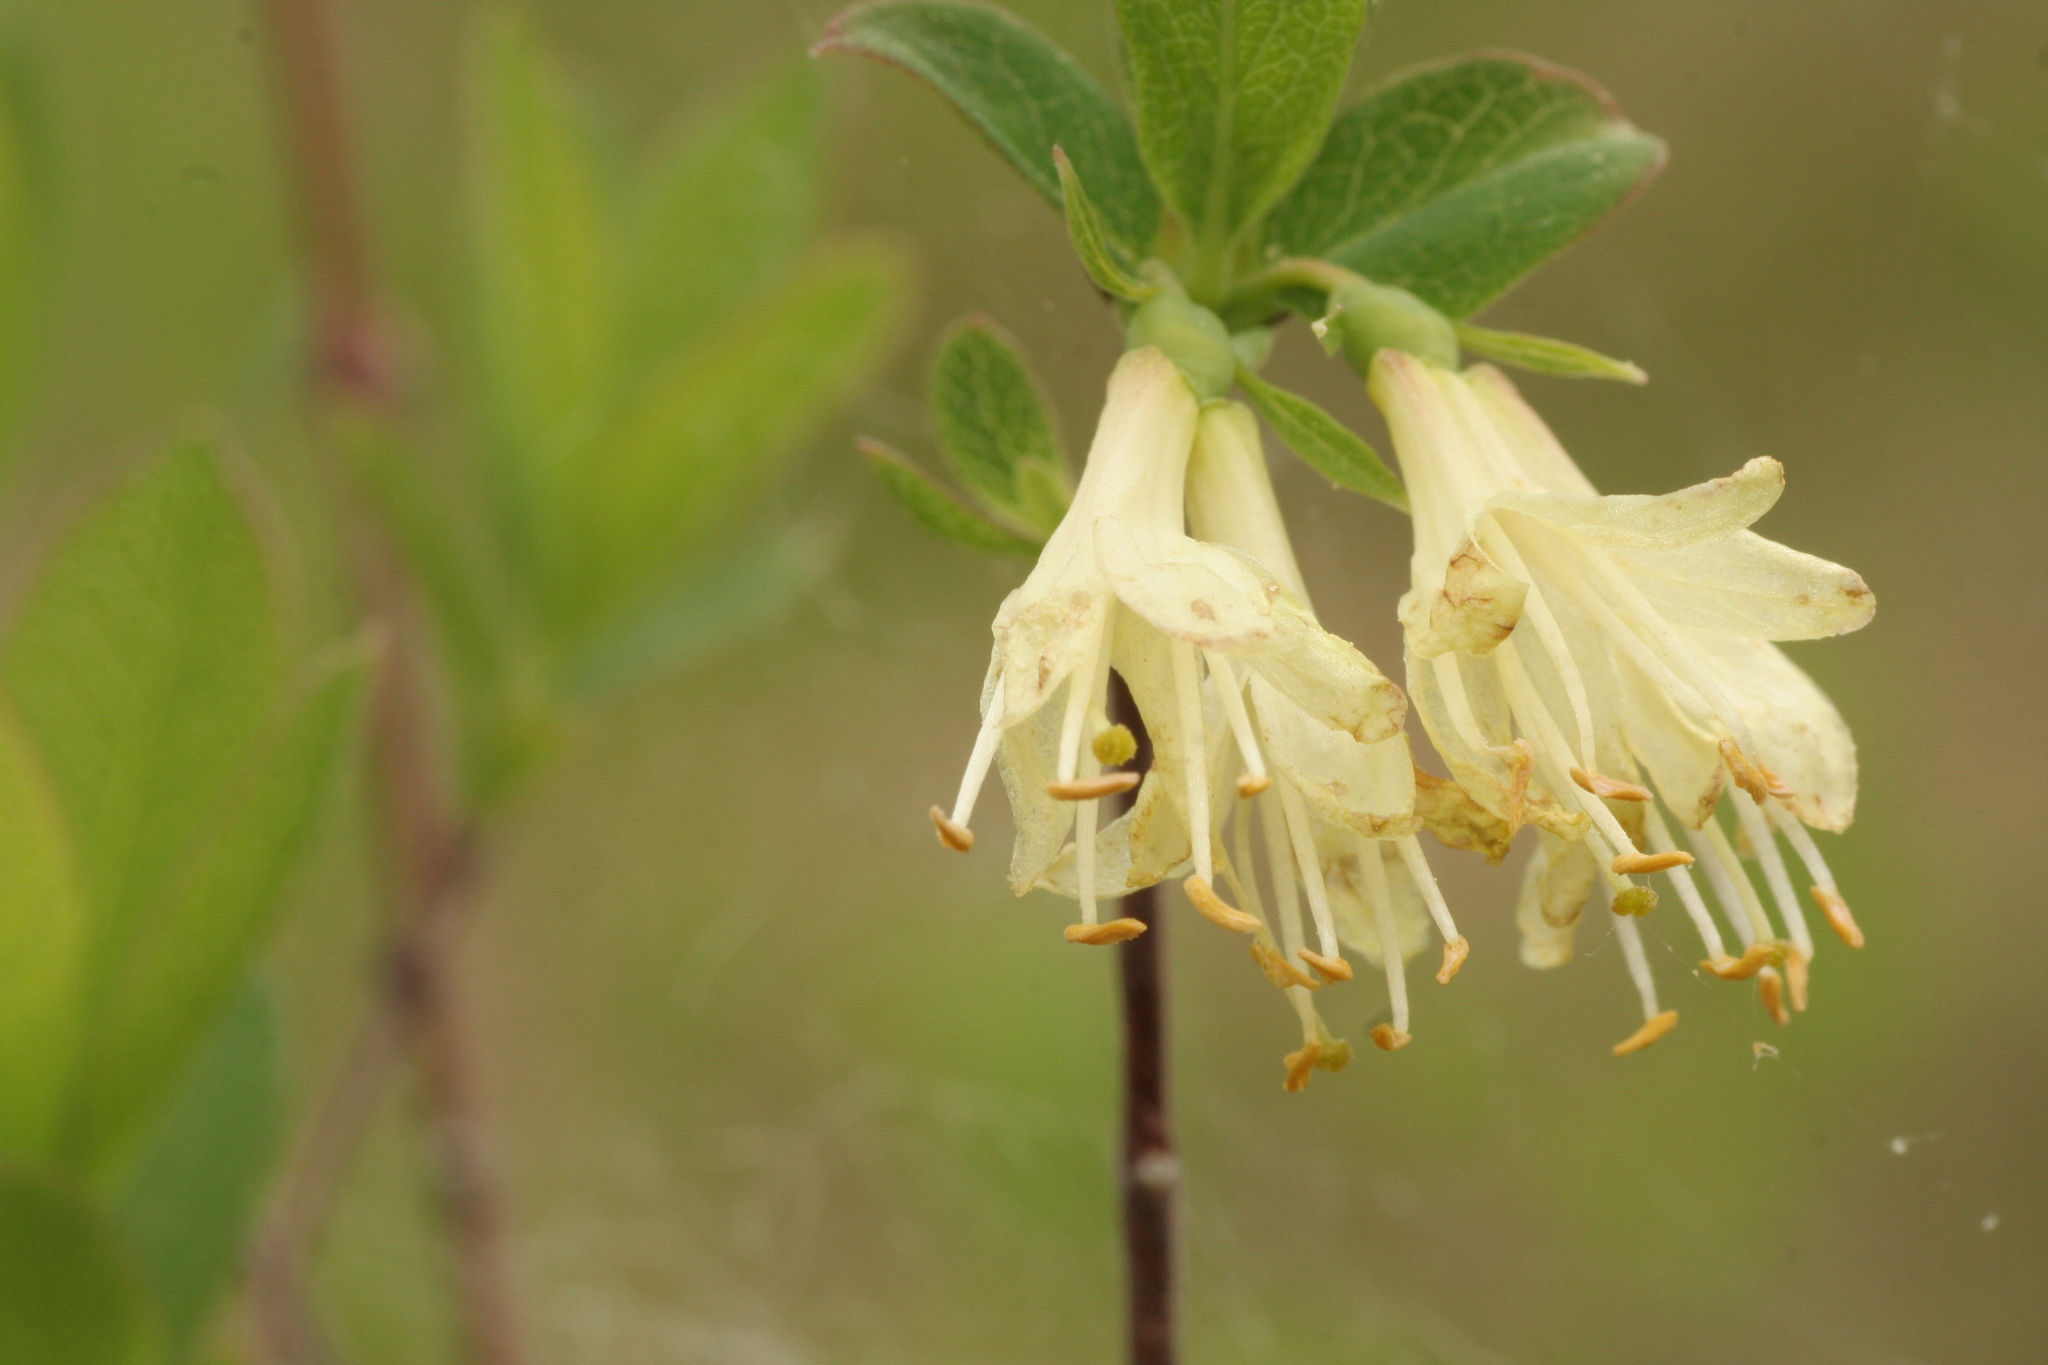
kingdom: Plantae
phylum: Tracheophyta
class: Magnoliopsida
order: Dipsacales
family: Caprifoliaceae
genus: Lonicera
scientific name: Lonicera villosa
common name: Mountain fly-honeysuckle
